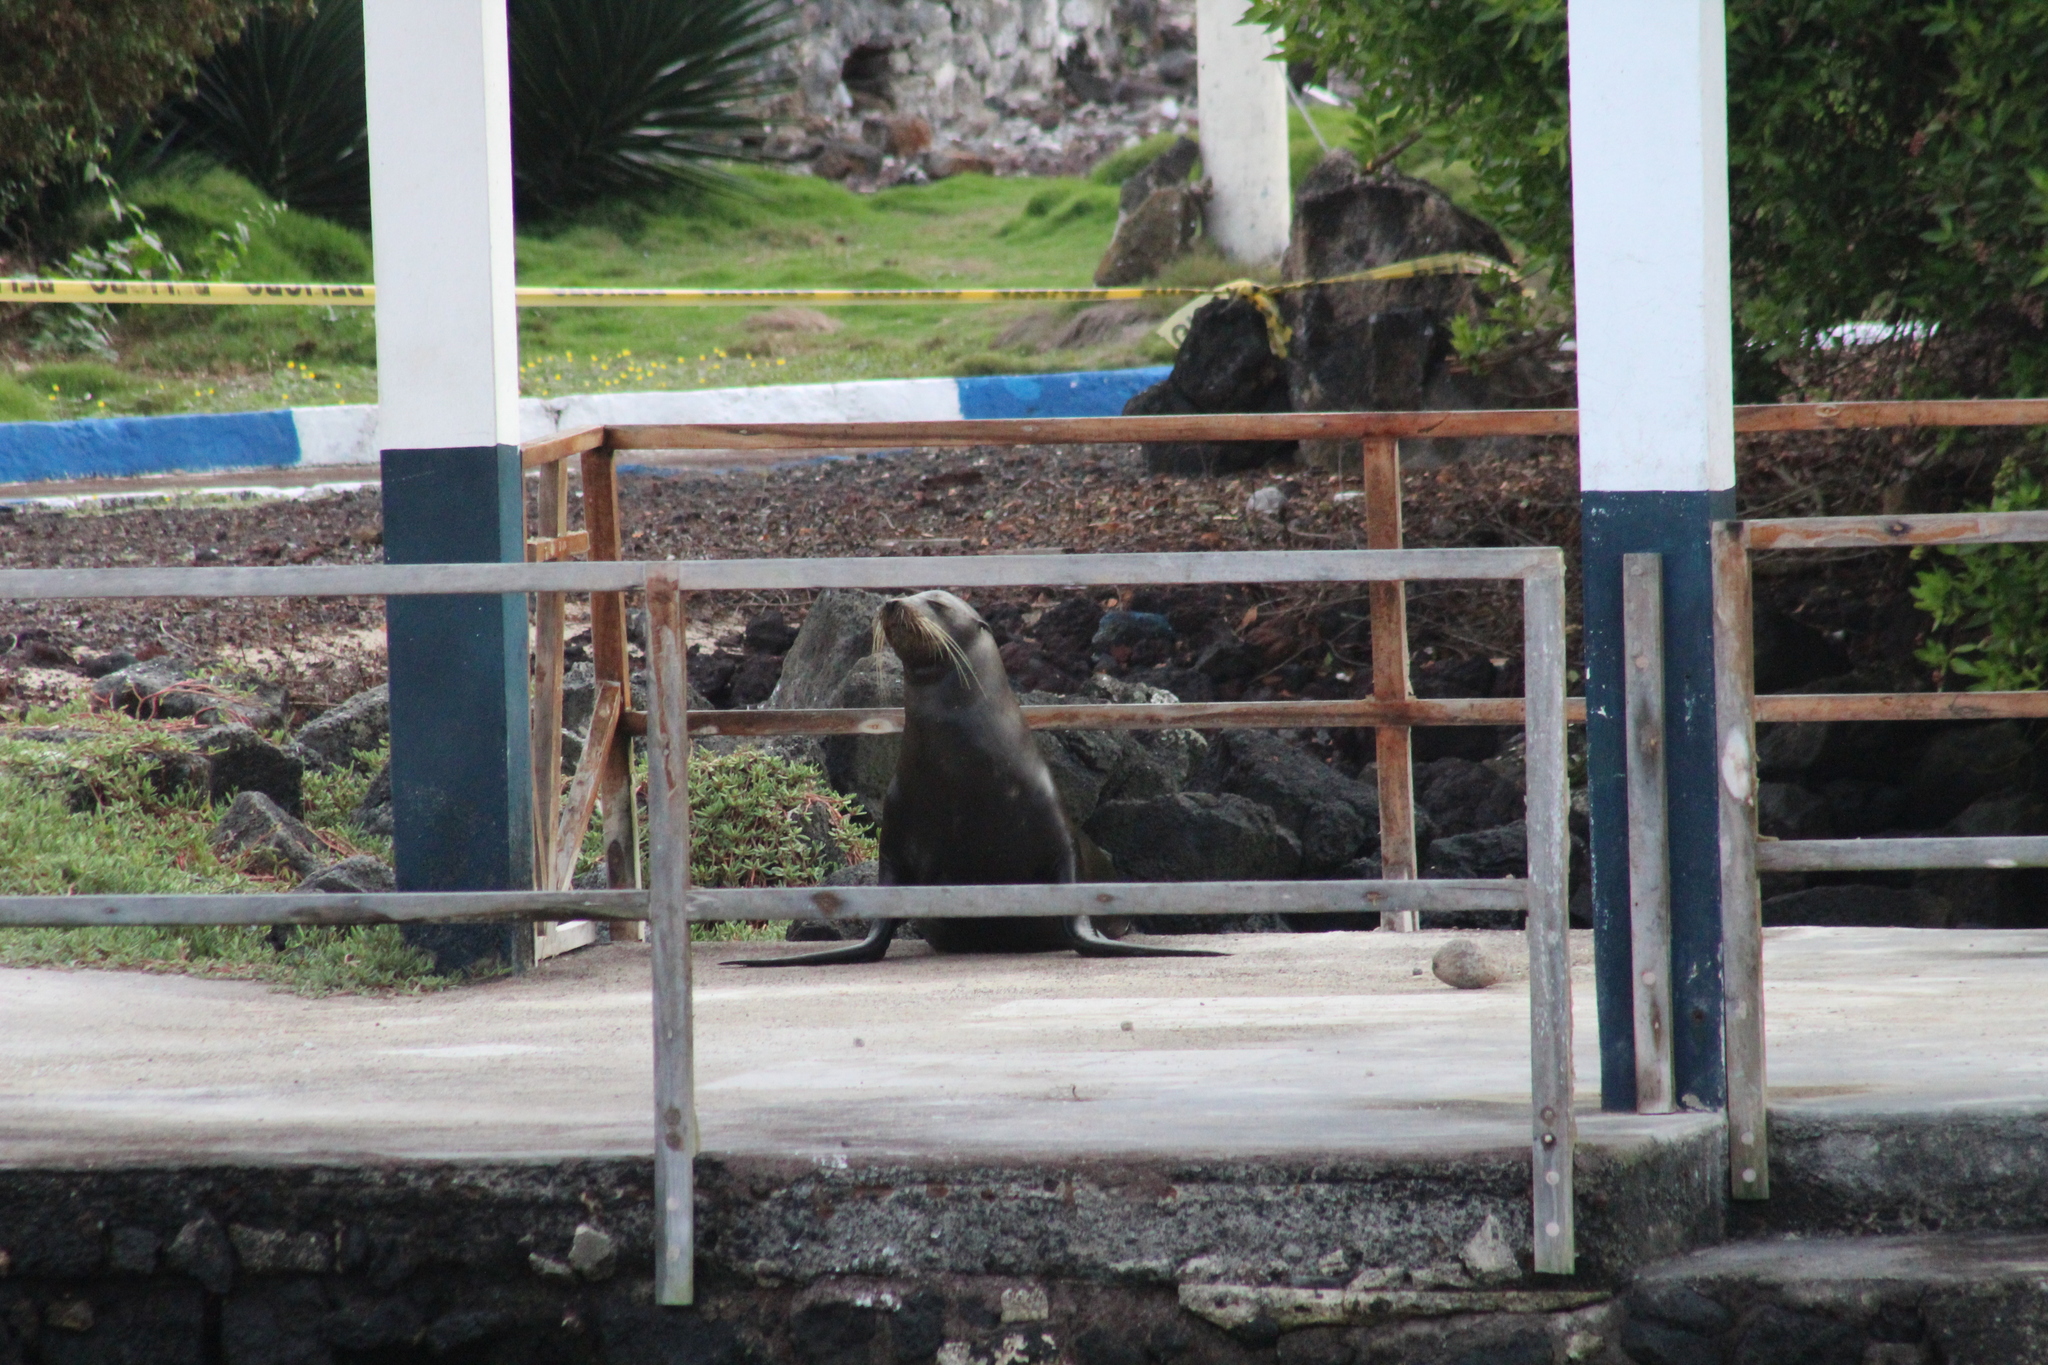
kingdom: Animalia
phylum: Chordata
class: Mammalia
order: Carnivora
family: Otariidae
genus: Zalophus
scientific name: Zalophus wollebaeki
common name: Galapagos sea lion
